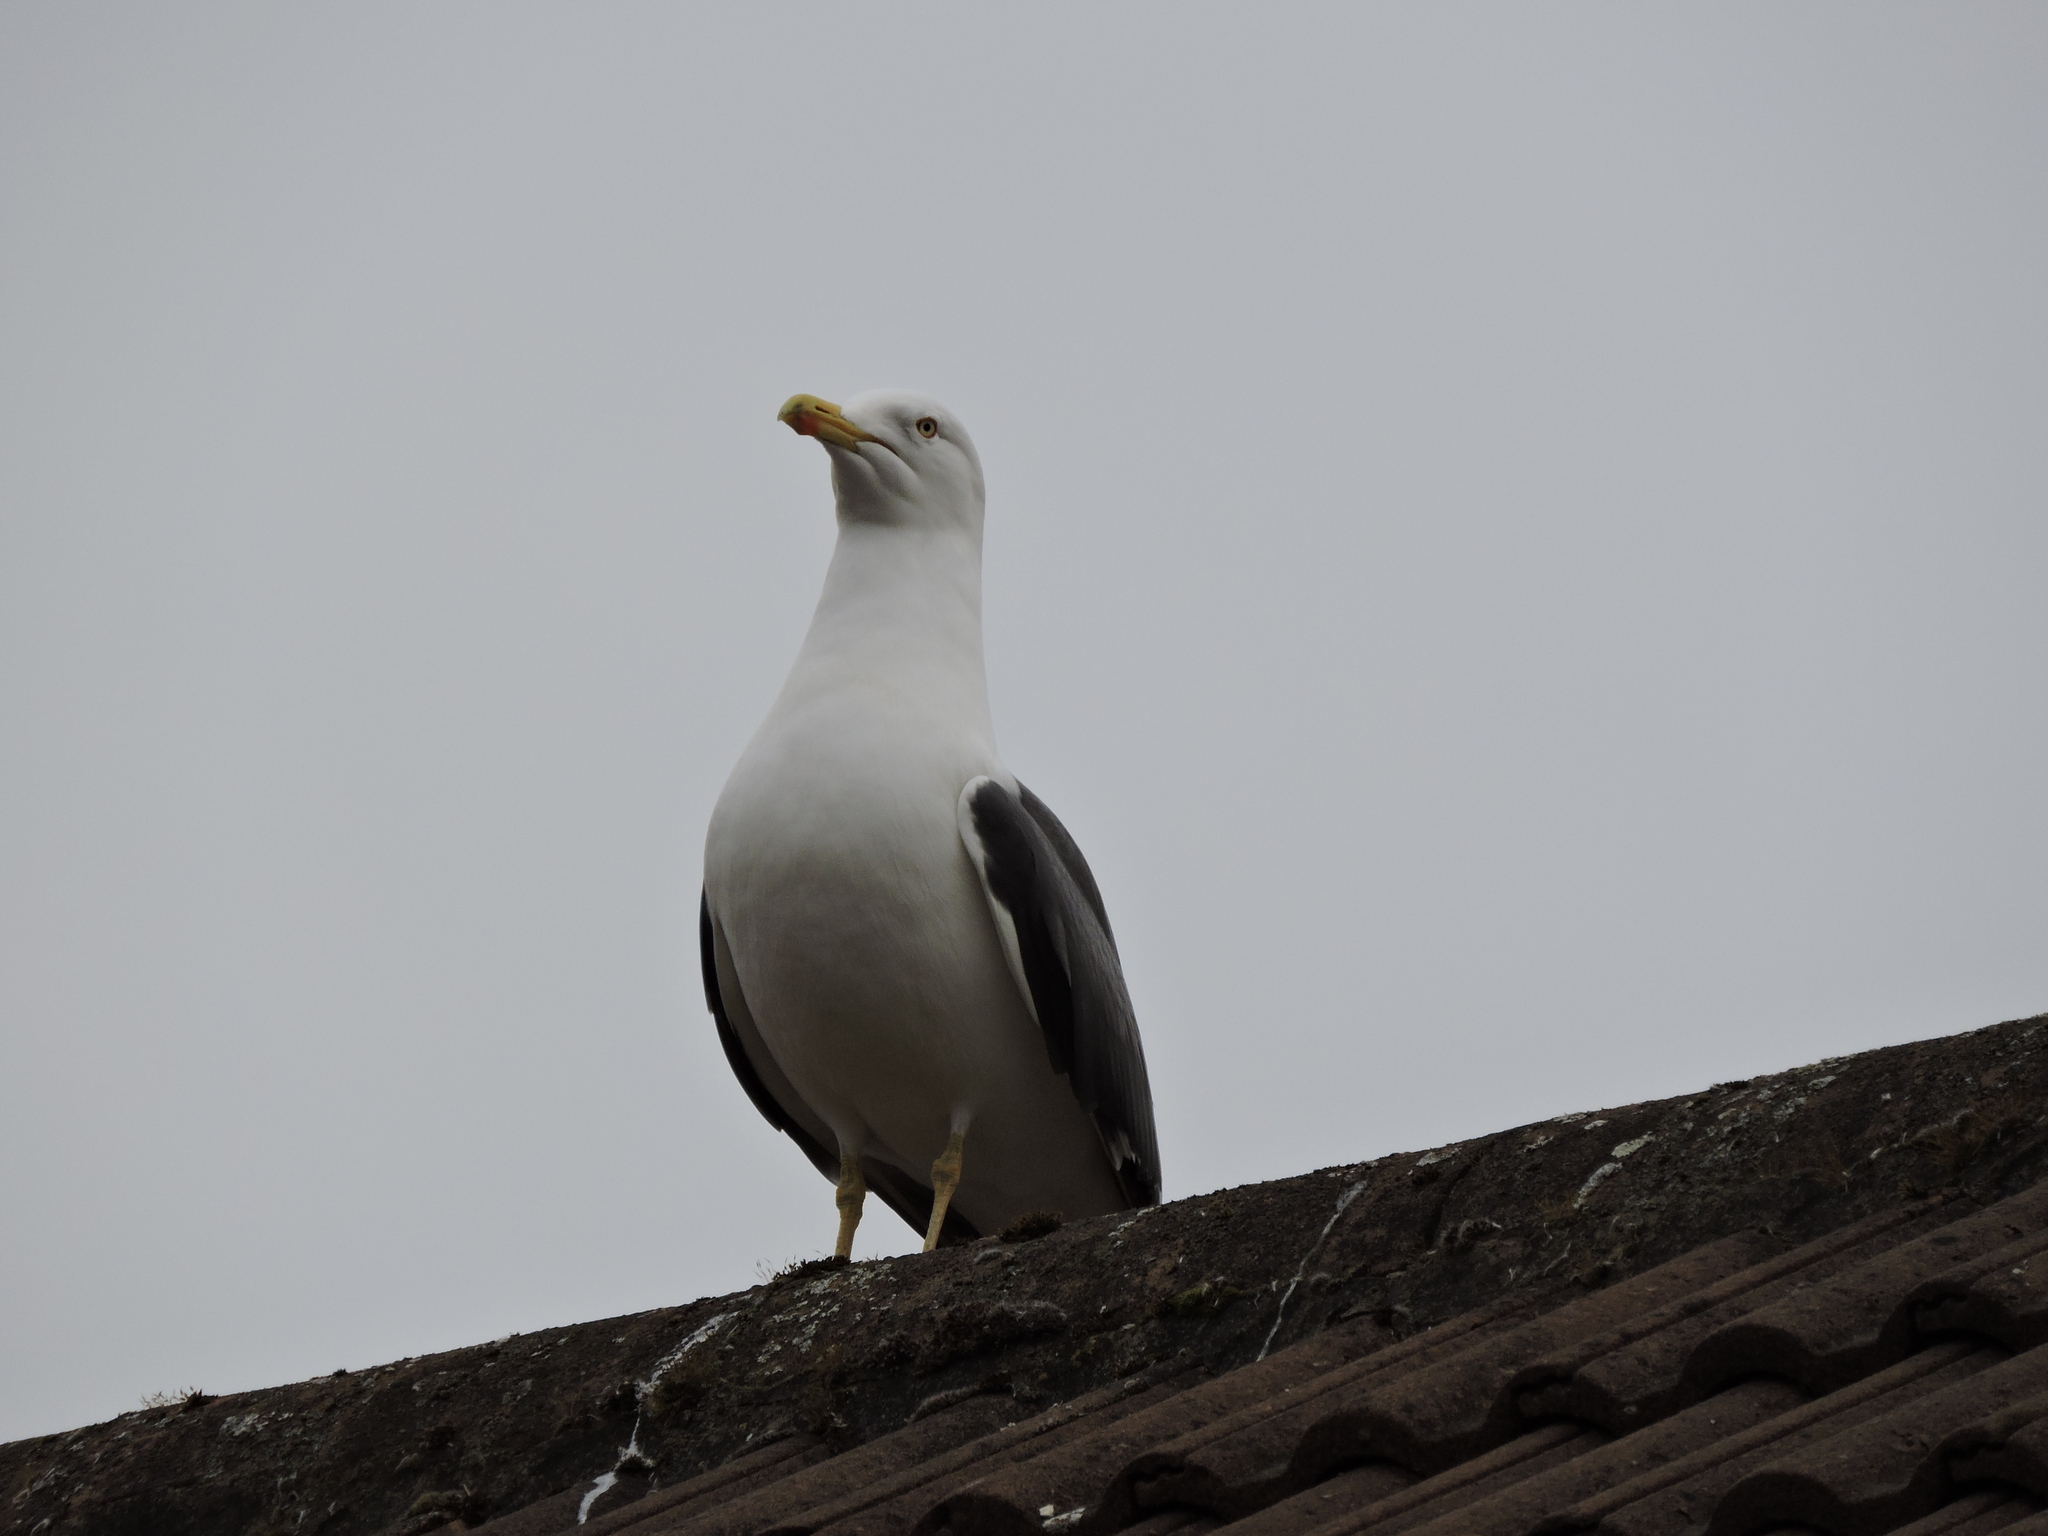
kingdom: Animalia
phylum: Chordata
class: Aves
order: Charadriiformes
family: Laridae
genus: Larus
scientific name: Larus fuscus
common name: Lesser black-backed gull
